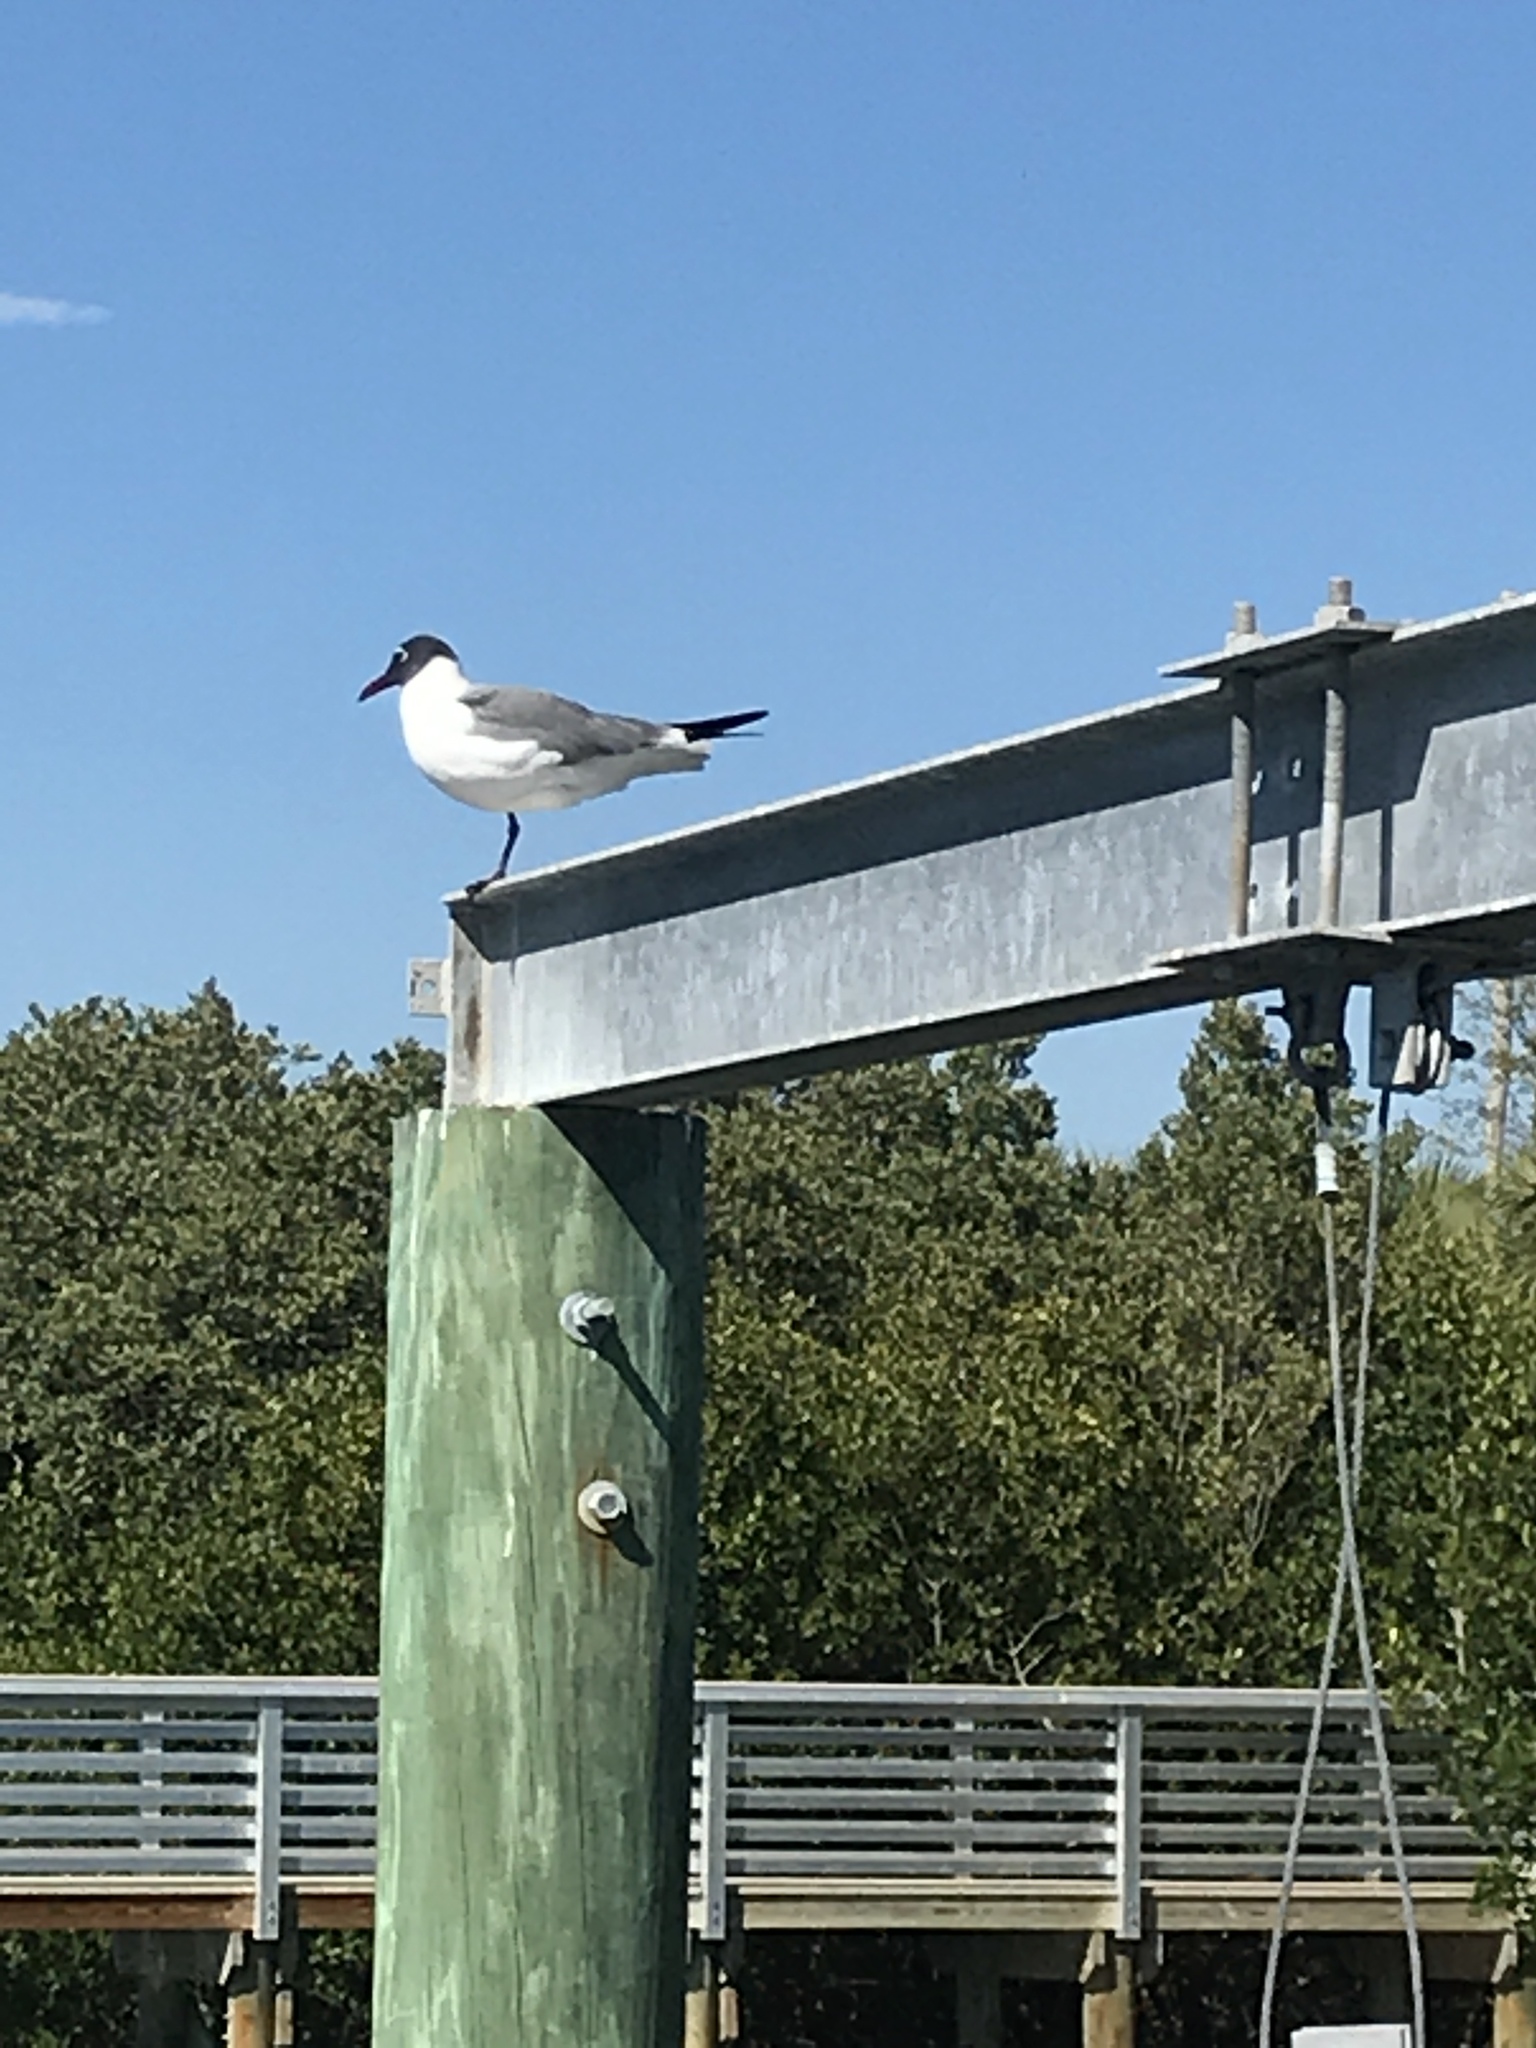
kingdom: Animalia
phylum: Chordata
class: Aves
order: Charadriiformes
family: Laridae
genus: Leucophaeus
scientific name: Leucophaeus atricilla
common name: Laughing gull
